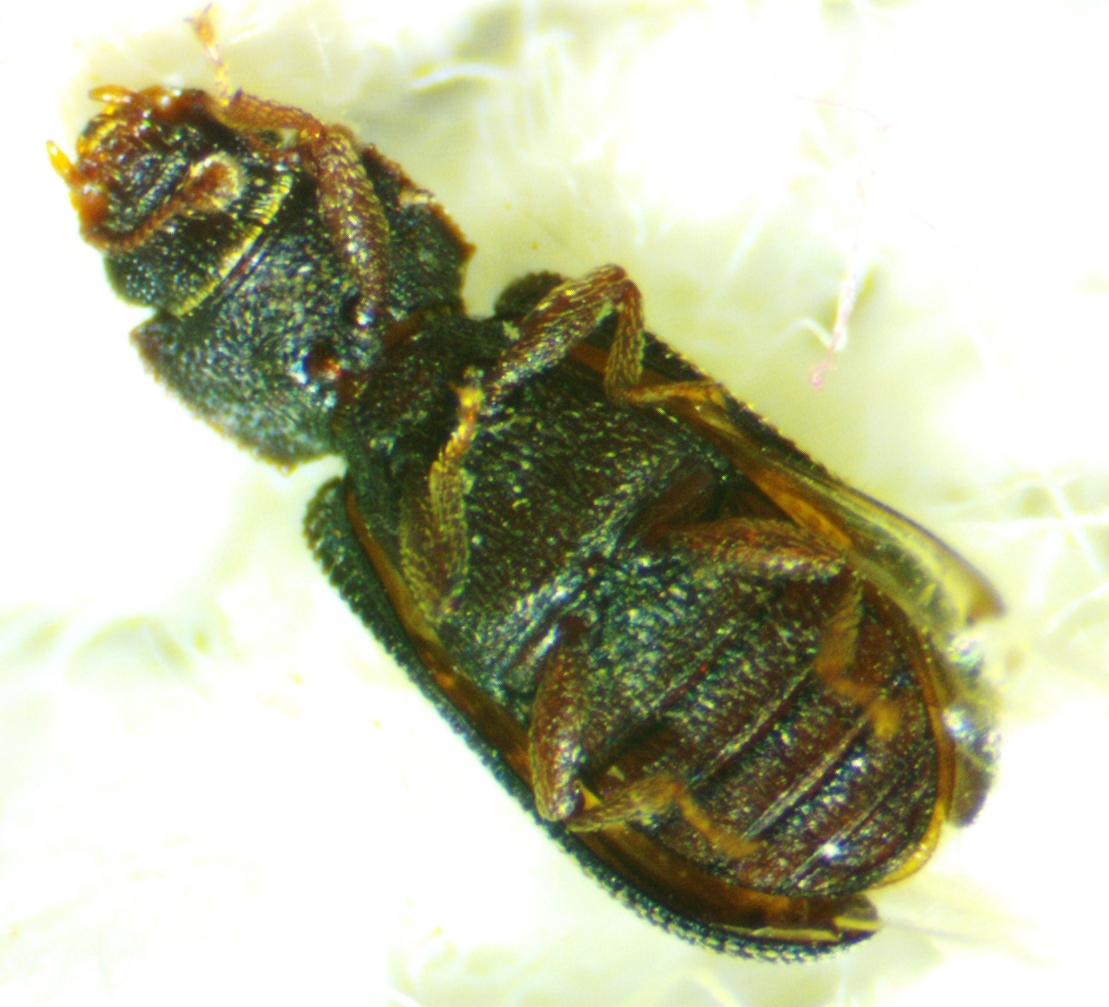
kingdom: Animalia
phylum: Arthropoda
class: Insecta
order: Coleoptera
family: Zopheridae
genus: Bitoma
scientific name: Bitoma quadriguttata
